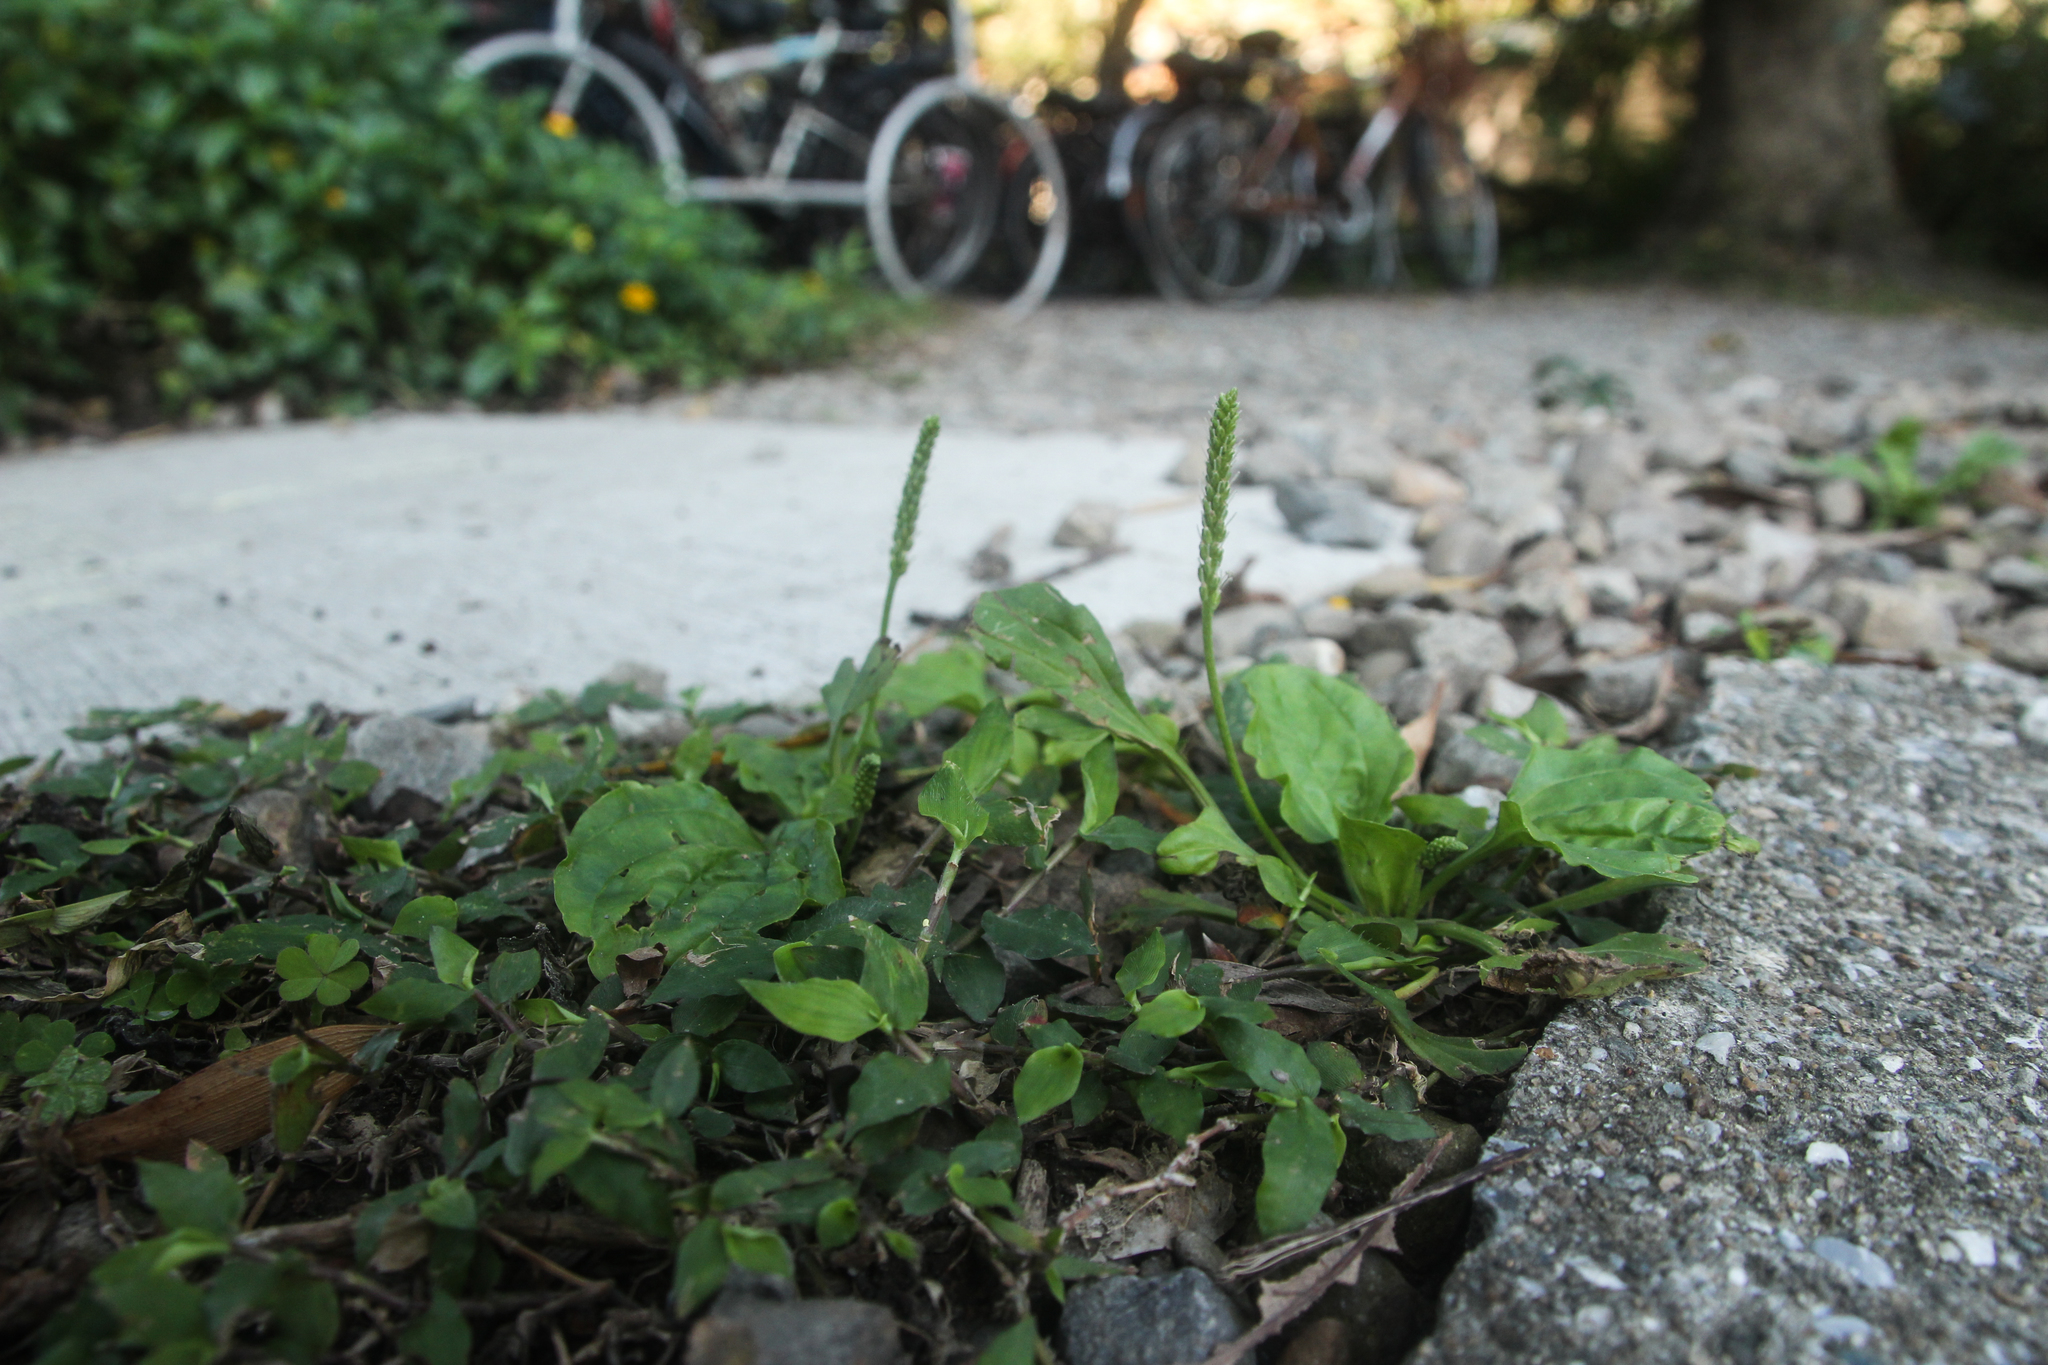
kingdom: Plantae
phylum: Tracheophyta
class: Magnoliopsida
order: Lamiales
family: Plantaginaceae
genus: Plantago
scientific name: Plantago asiatica
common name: Psyllium
